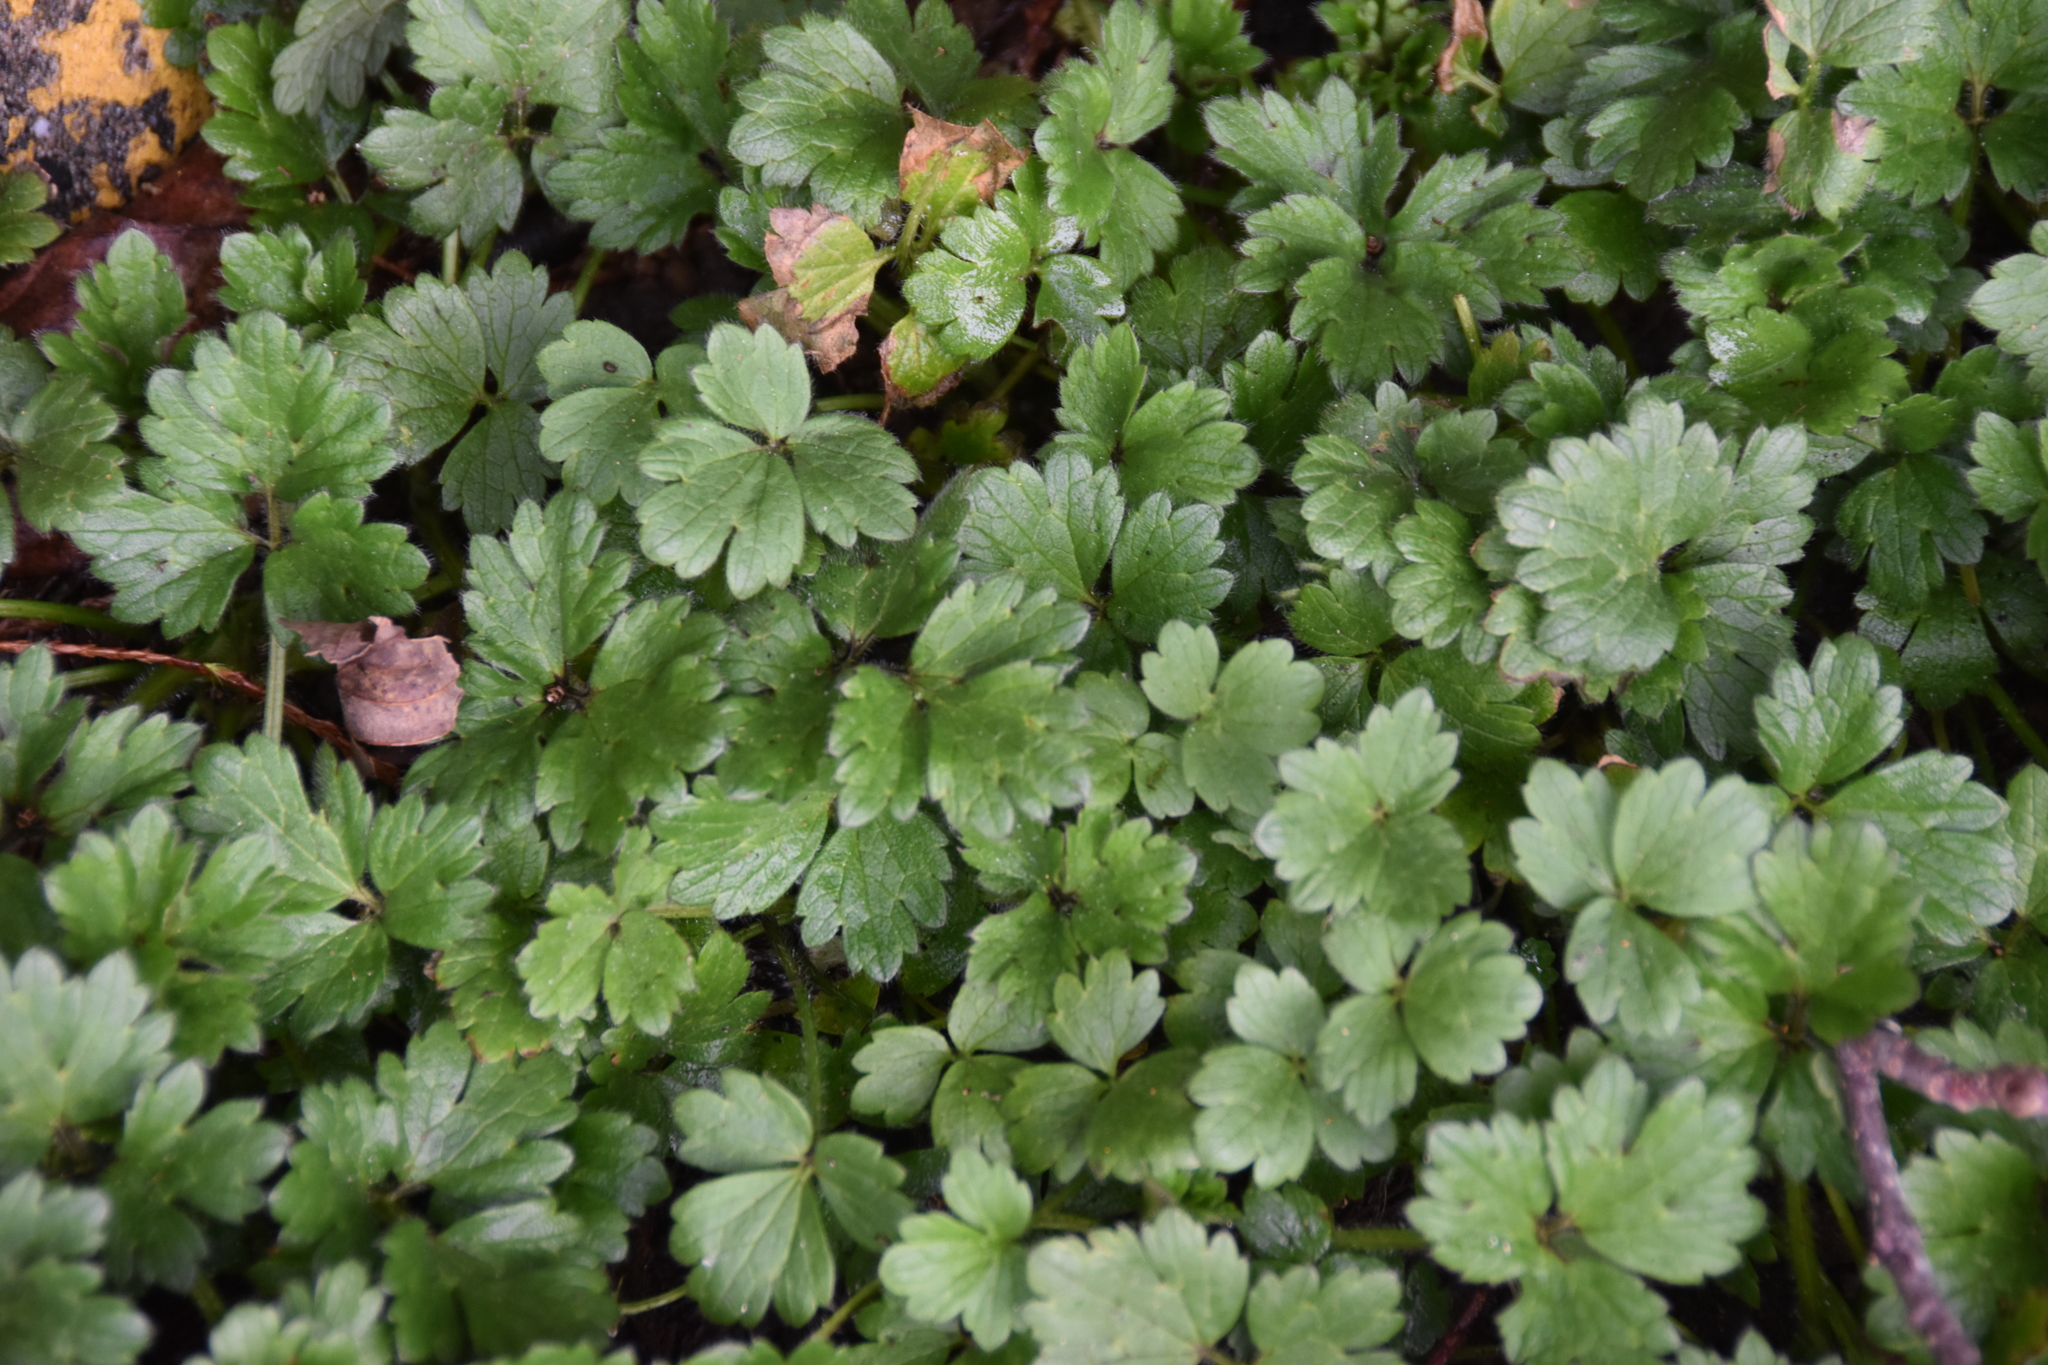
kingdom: Plantae
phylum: Tracheophyta
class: Magnoliopsida
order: Ranunculales
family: Ranunculaceae
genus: Ranunculus
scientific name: Ranunculus repens
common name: Creeping buttercup
